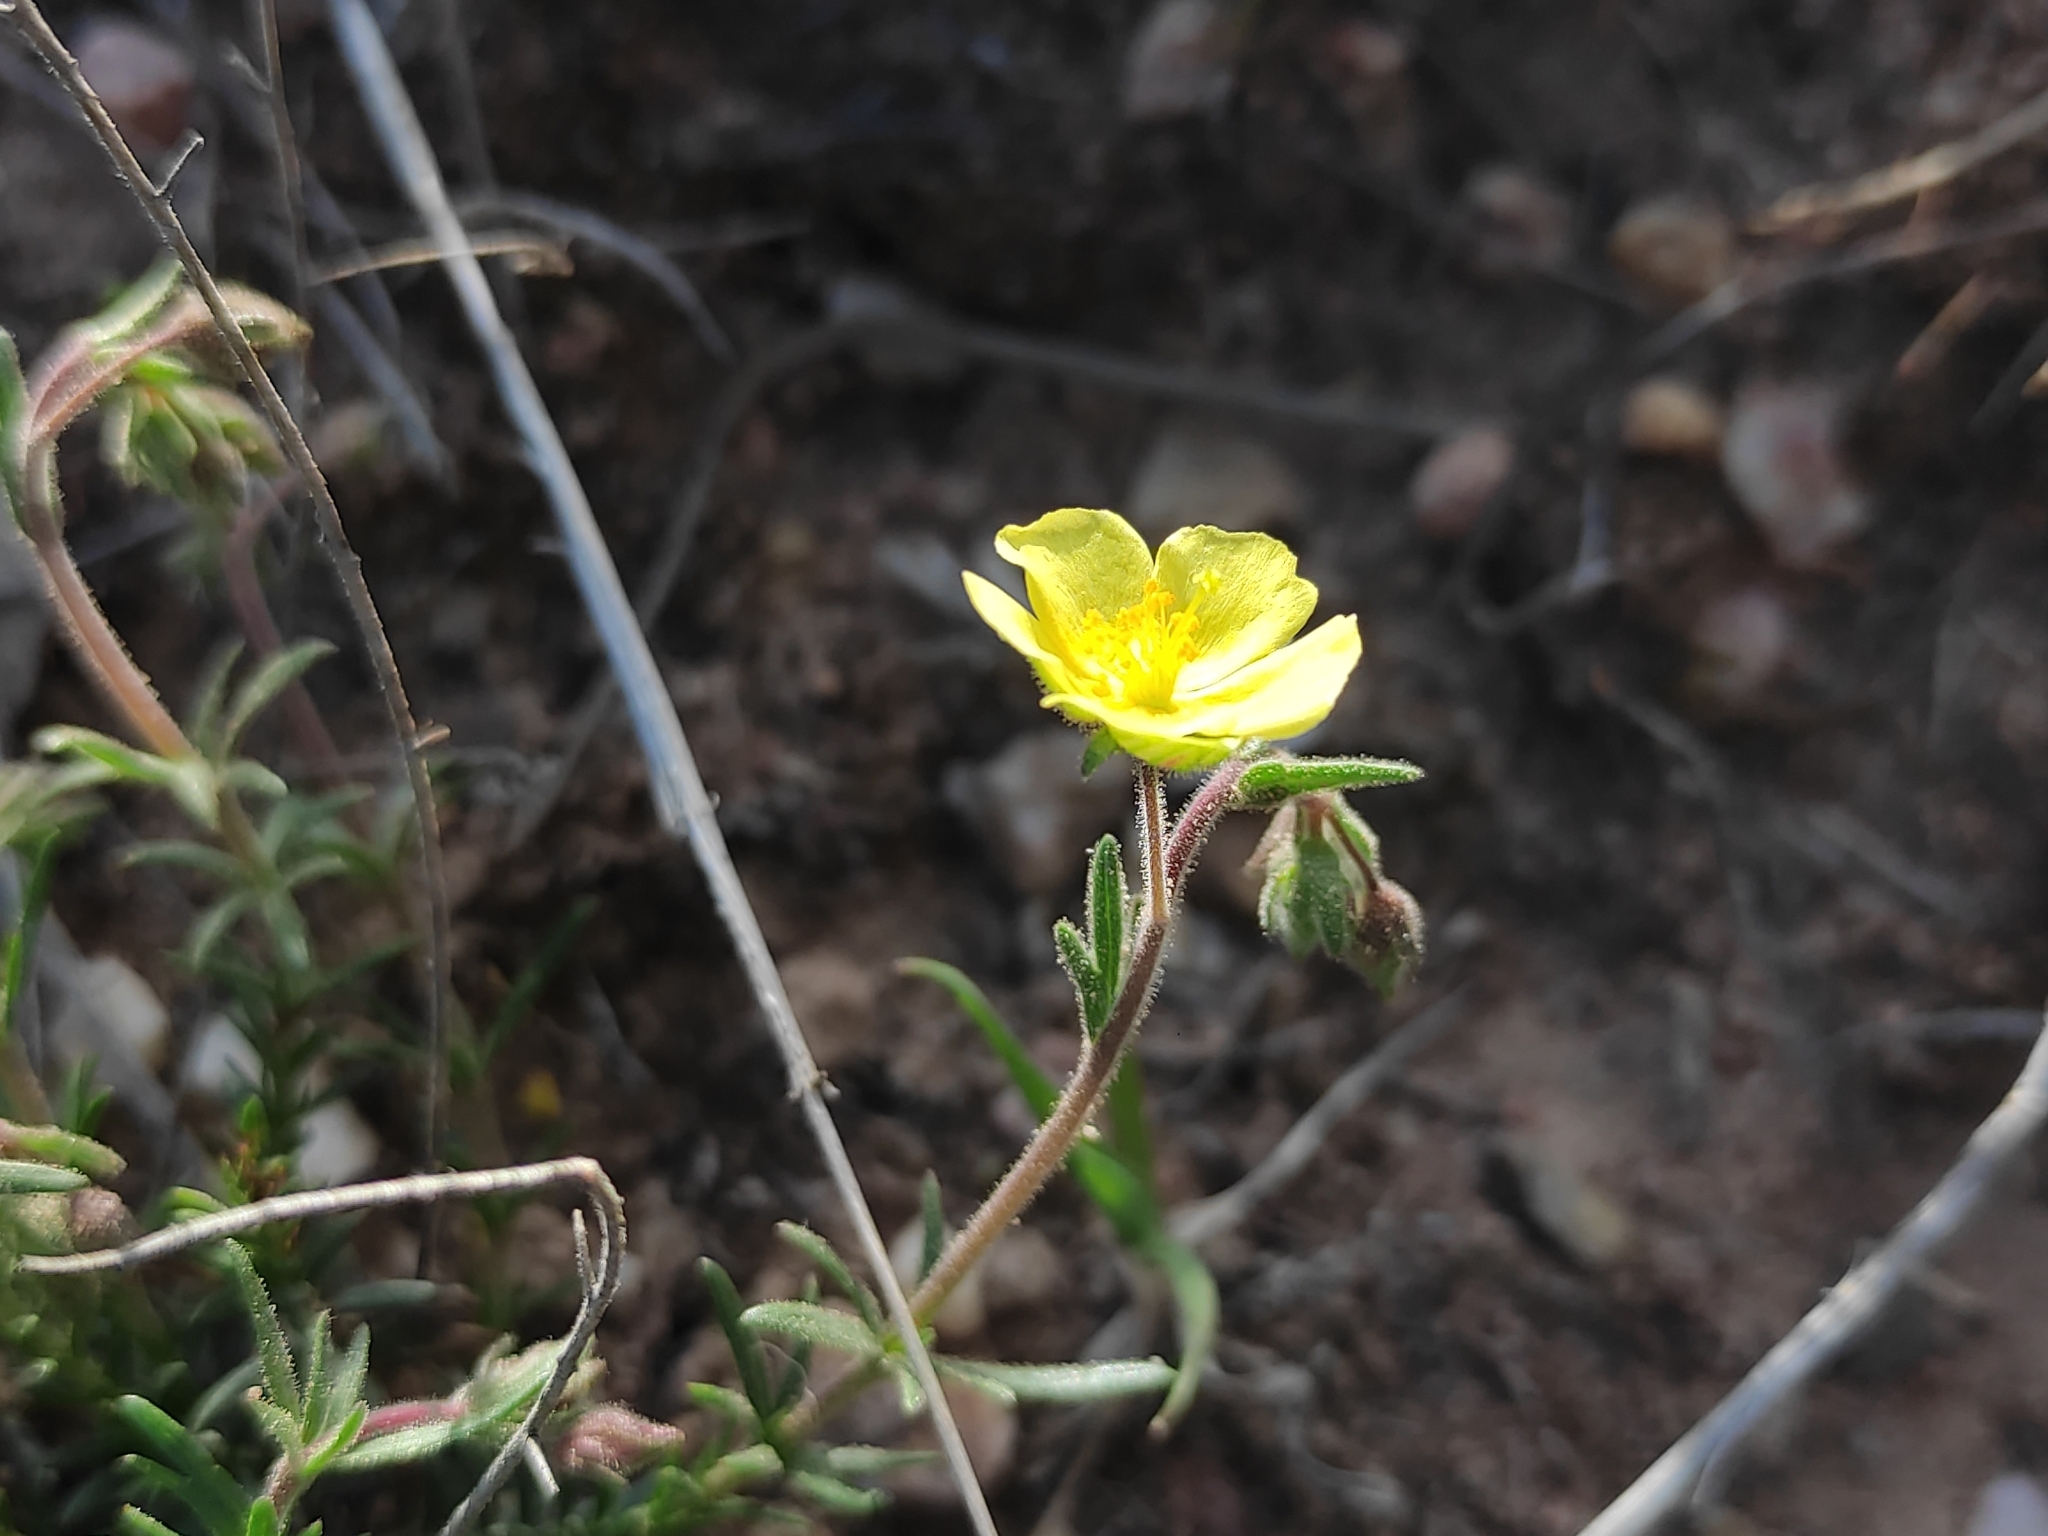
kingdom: Plantae
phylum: Tracheophyta
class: Magnoliopsida
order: Malvales
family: Cistaceae
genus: Fumana
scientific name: Fumana juniperina
